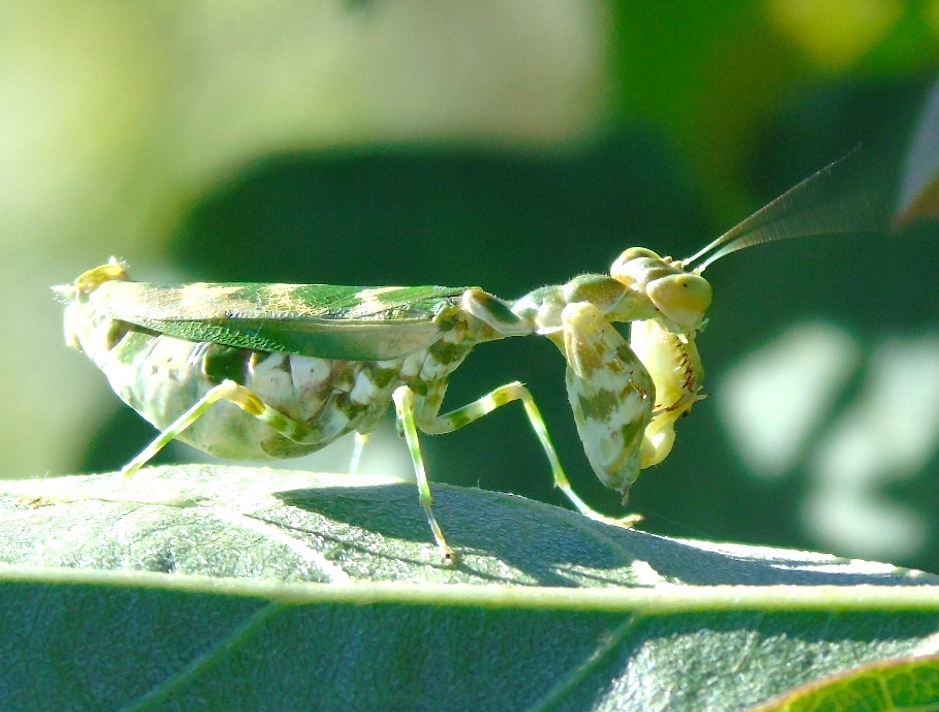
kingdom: Animalia
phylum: Arthropoda
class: Insecta
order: Mantodea
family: Acanthopidae
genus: Acontista
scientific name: Acontista mexicana
